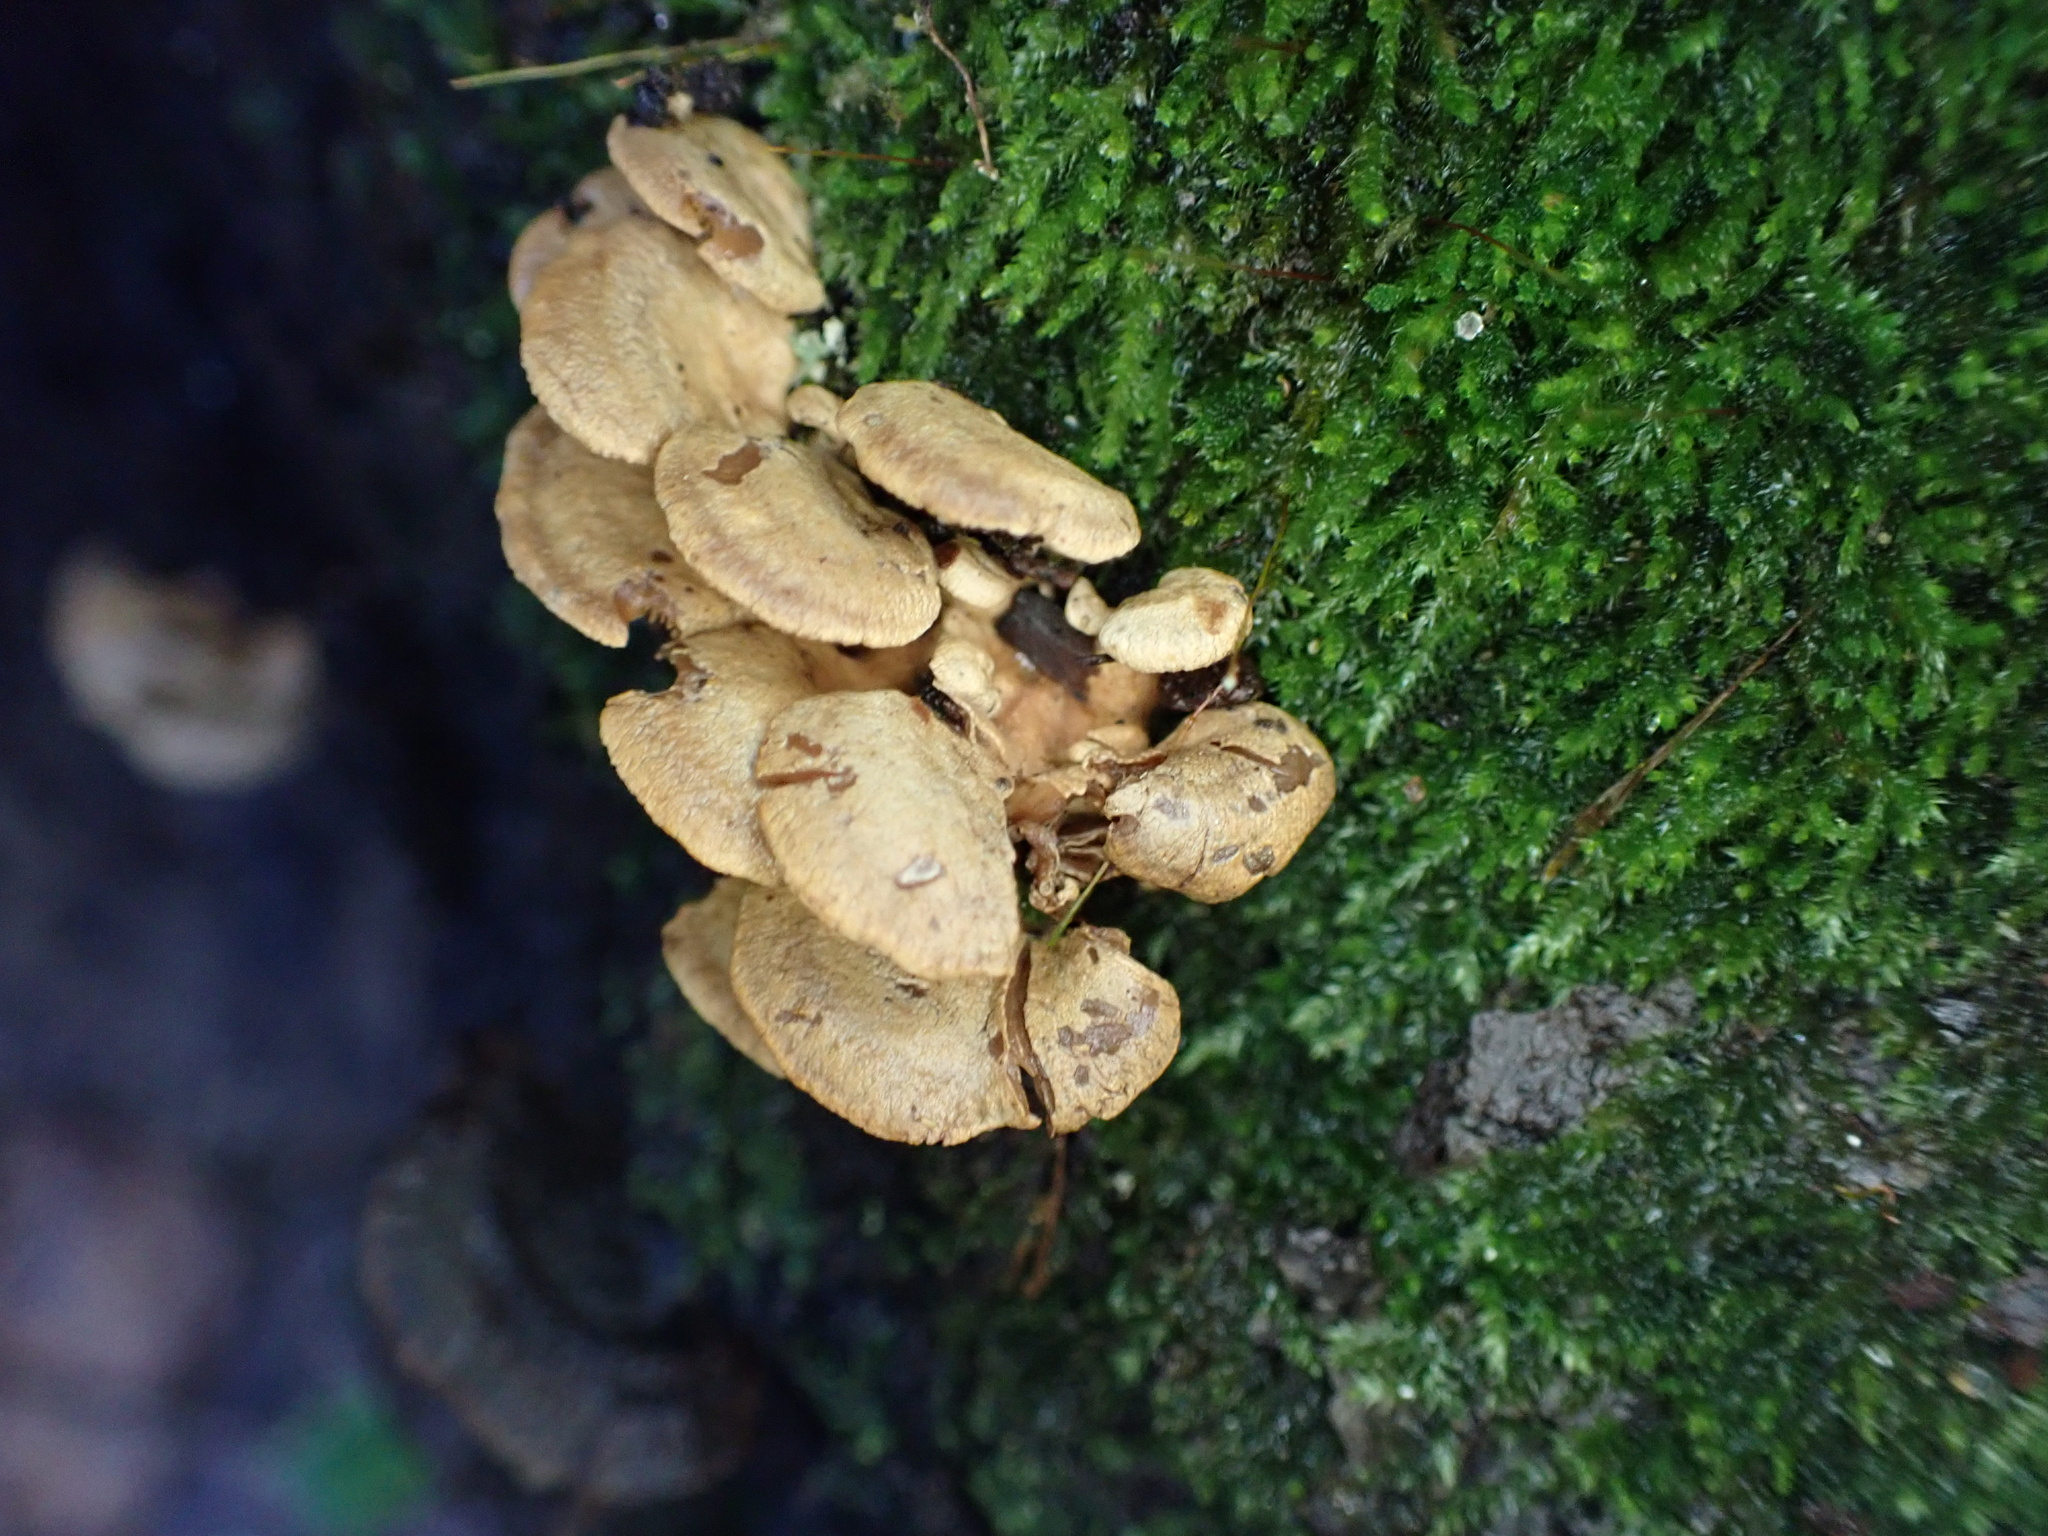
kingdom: Fungi
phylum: Basidiomycota
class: Agaricomycetes
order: Agaricales
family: Mycenaceae
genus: Panellus
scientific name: Panellus stipticus
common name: Bitter oysterling
